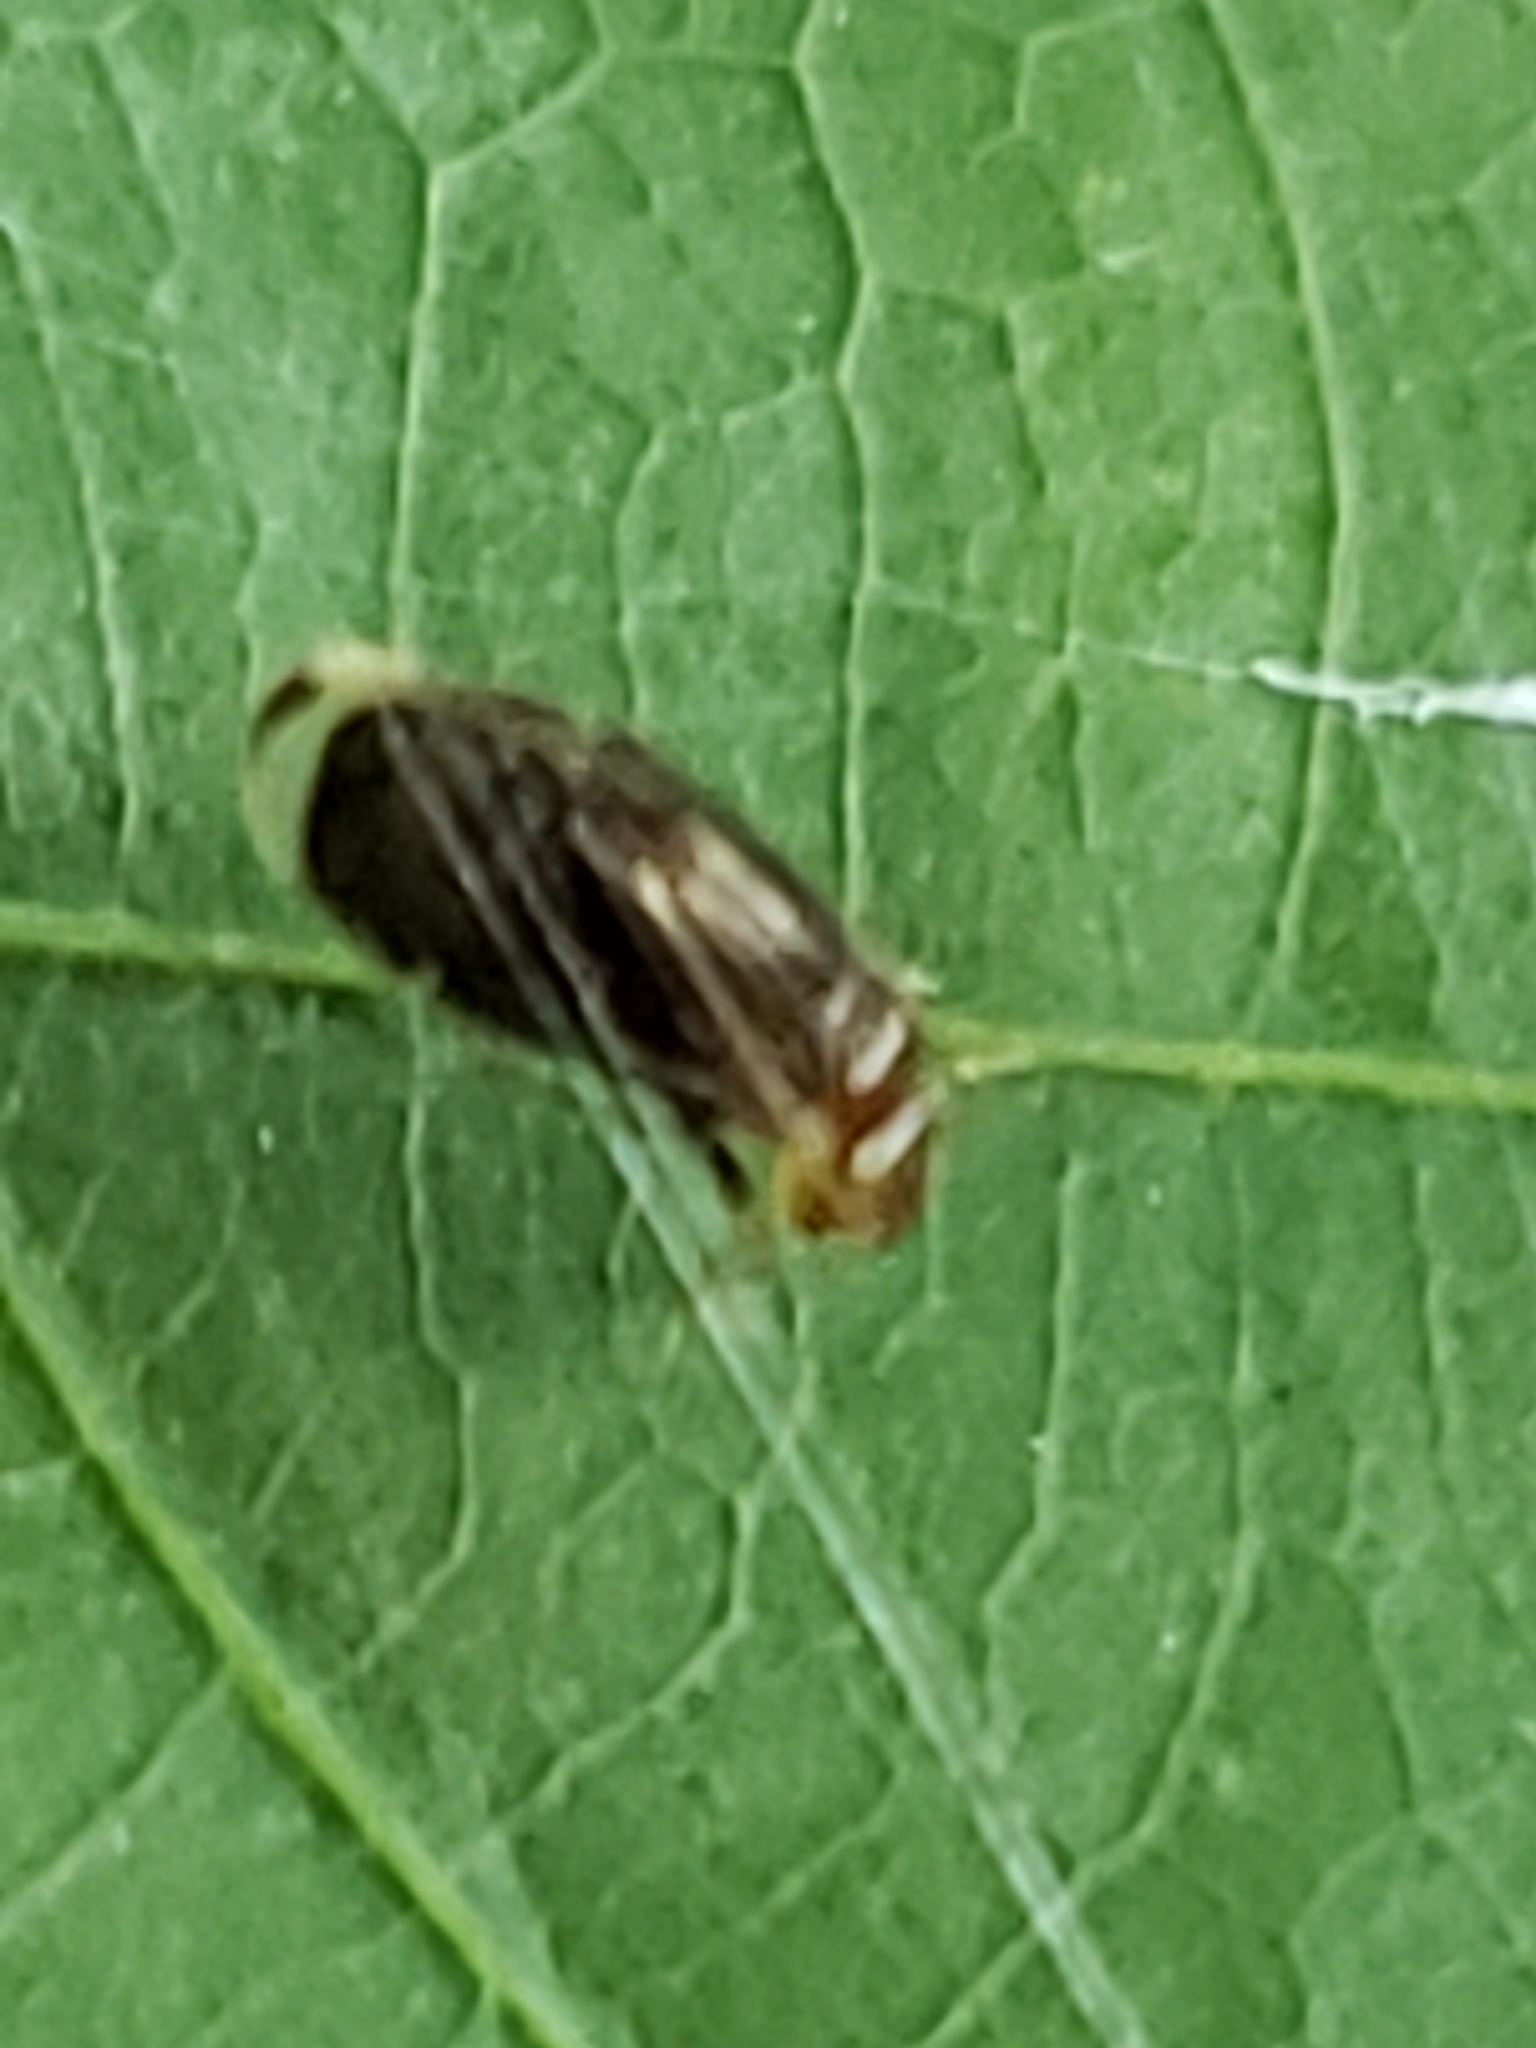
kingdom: Animalia
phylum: Arthropoda
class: Insecta
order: Psocodea
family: Amphipsocidae
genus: Polypsocus
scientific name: Polypsocus corruptus
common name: Corrupt barklouse
